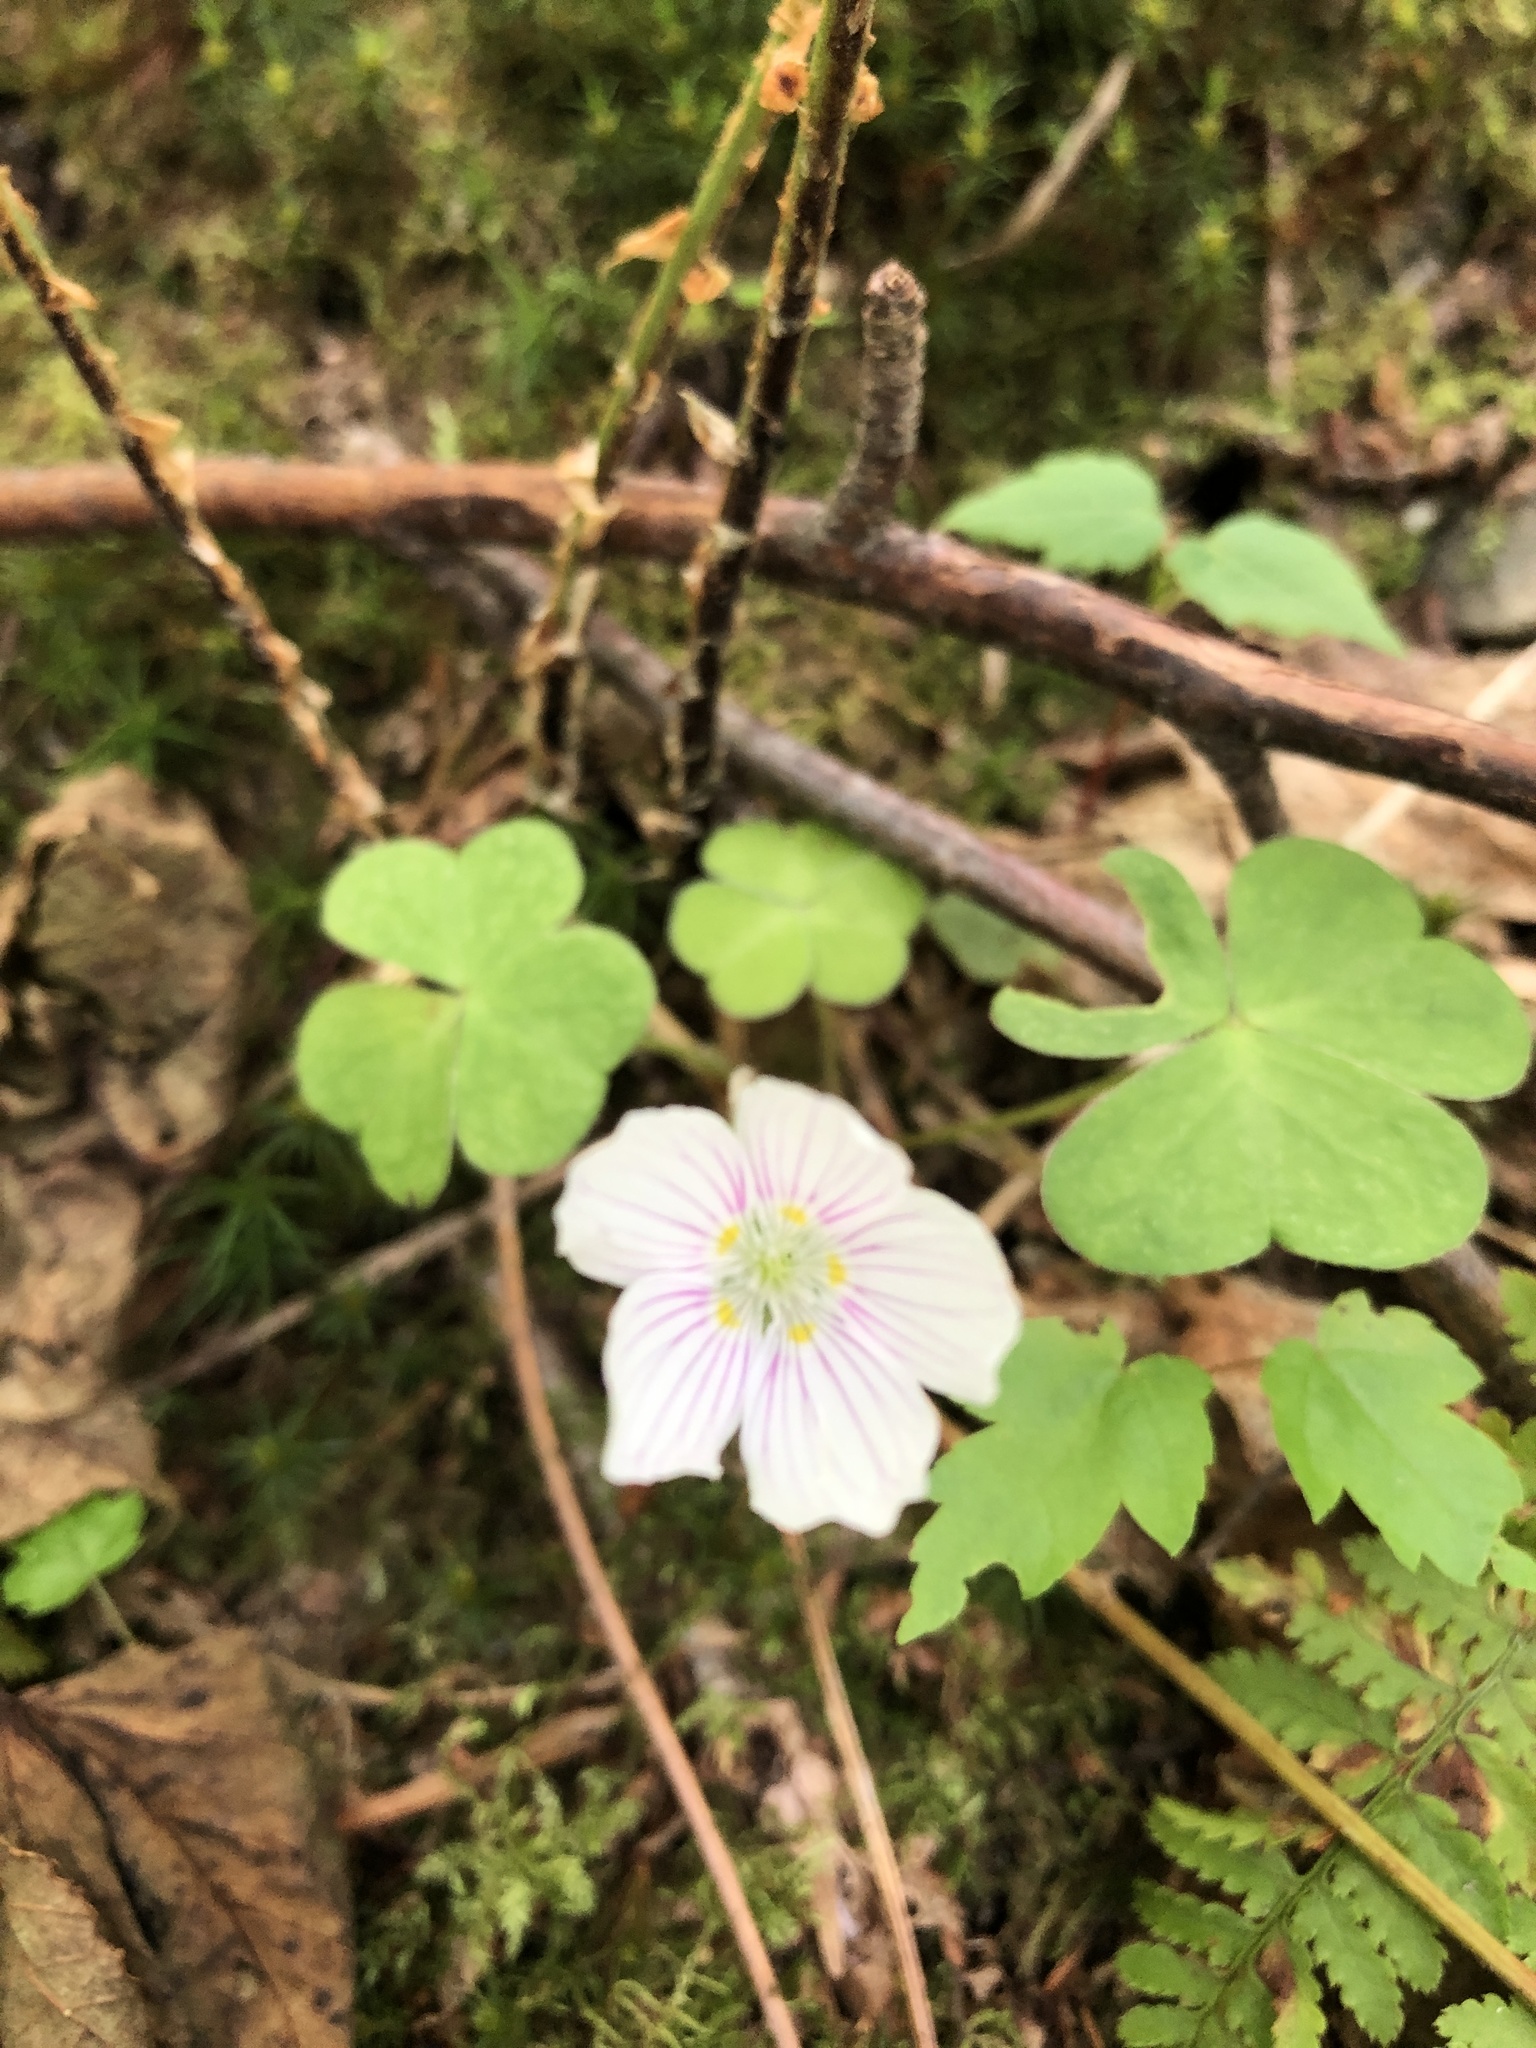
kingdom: Plantae
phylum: Tracheophyta
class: Magnoliopsida
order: Oxalidales
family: Oxalidaceae
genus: Oxalis
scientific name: Oxalis montana
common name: American wood-sorrel
